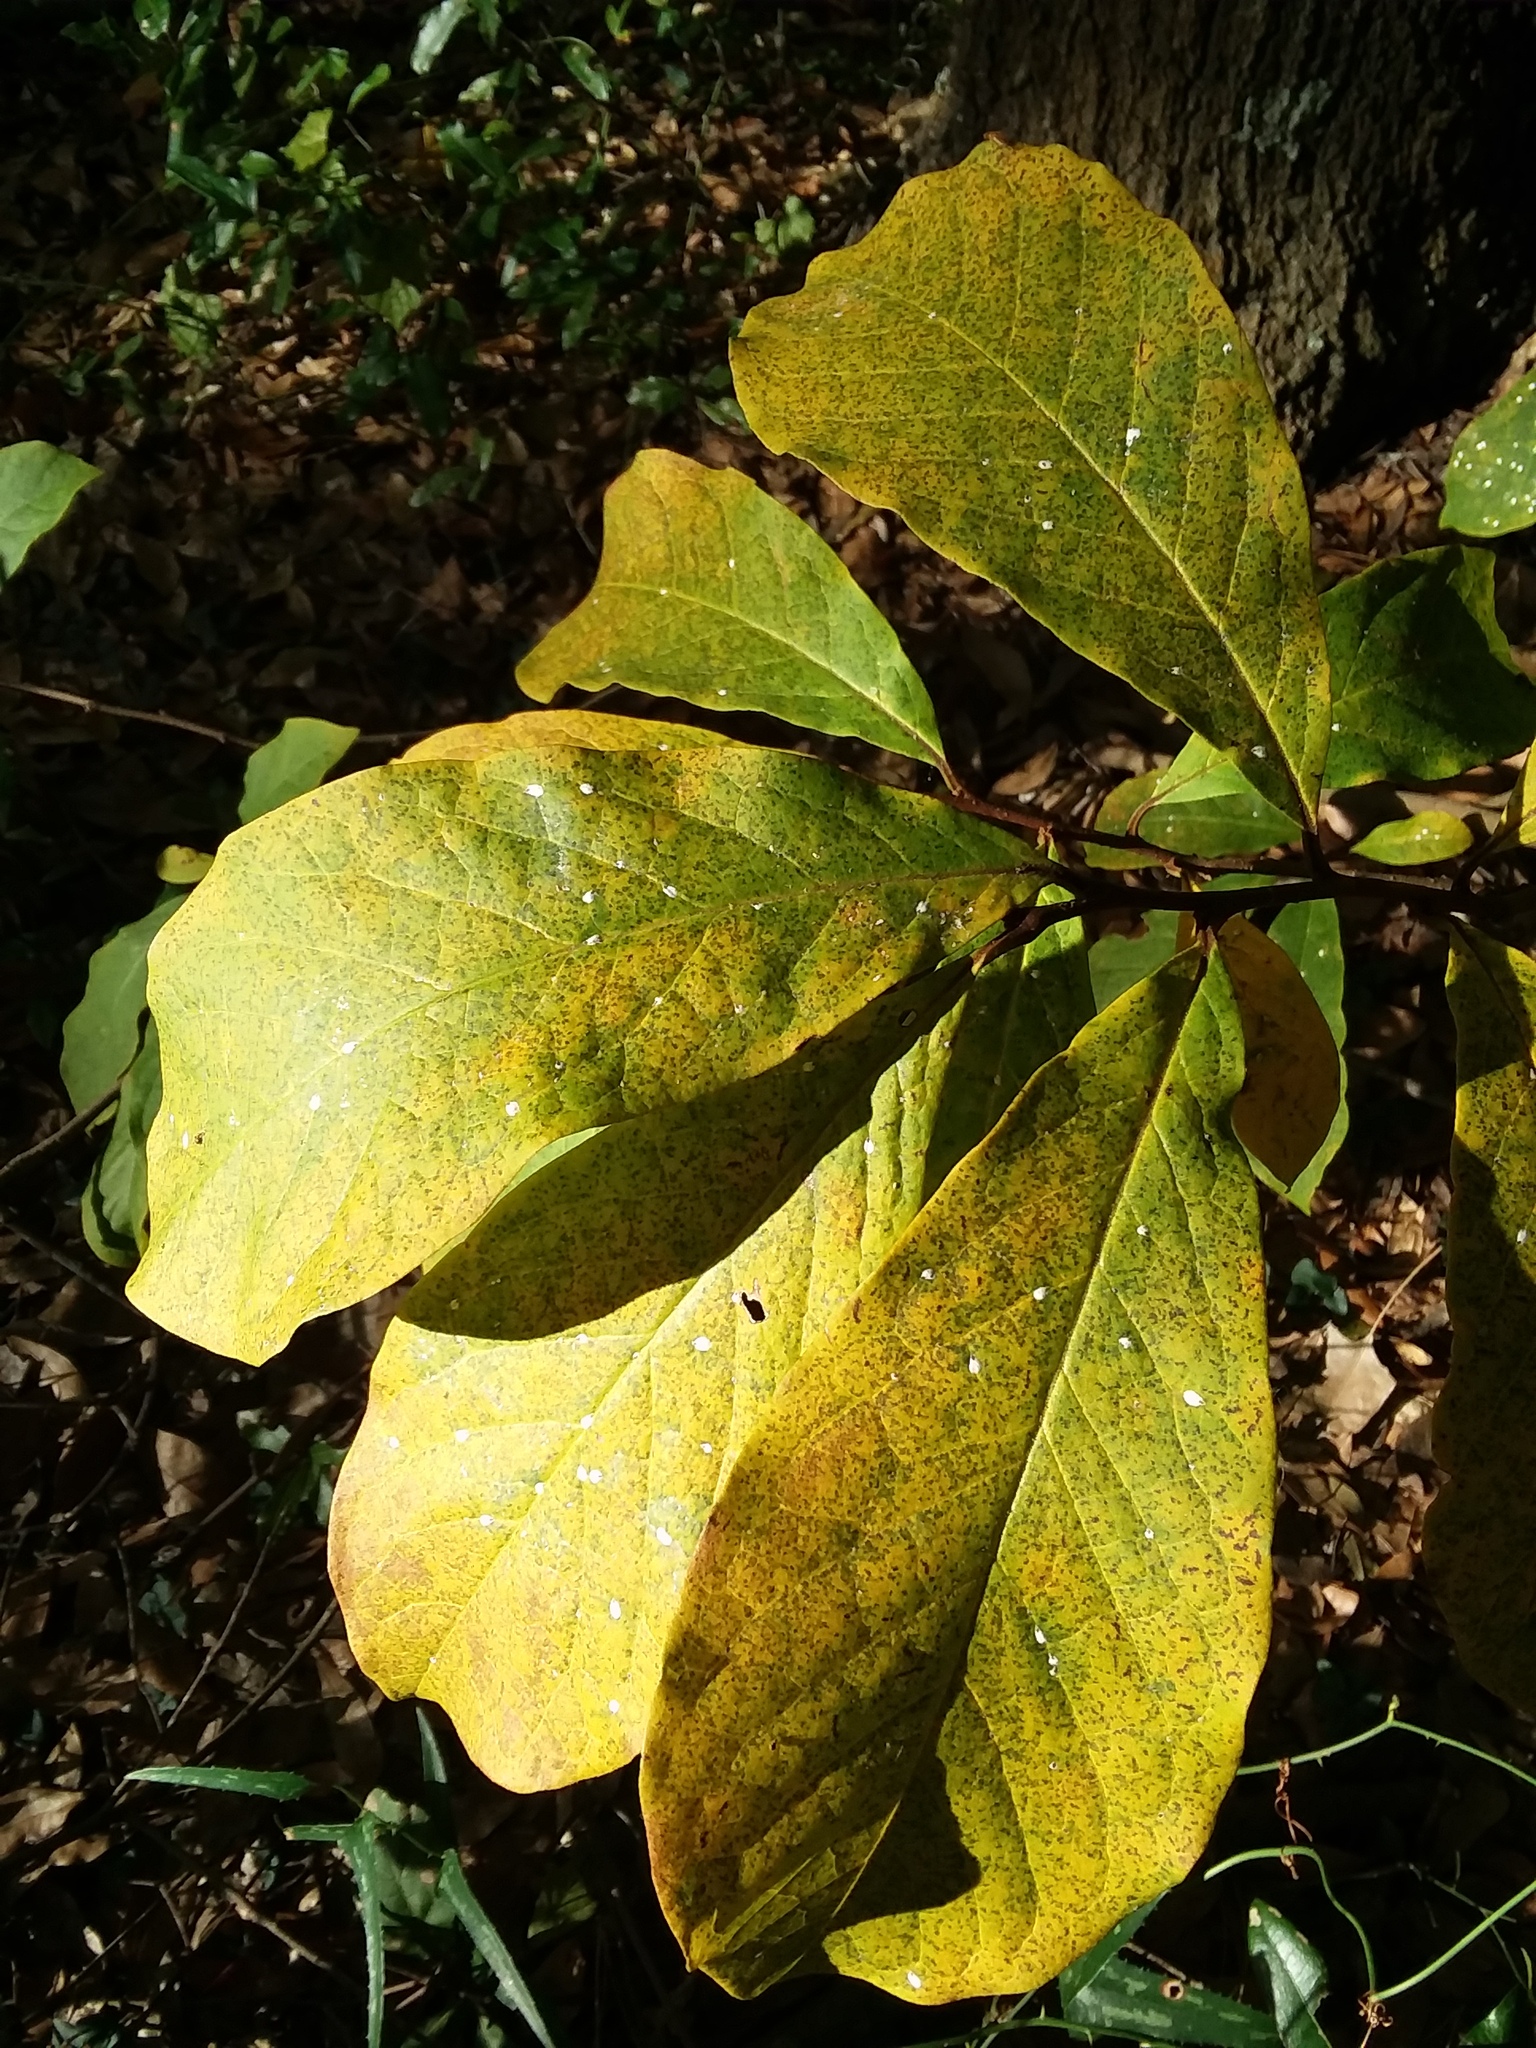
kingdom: Plantae
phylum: Tracheophyta
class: Magnoliopsida
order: Magnoliales
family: Annonaceae
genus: Asimina
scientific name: Asimina parviflora
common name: Dwarf pawpaw
